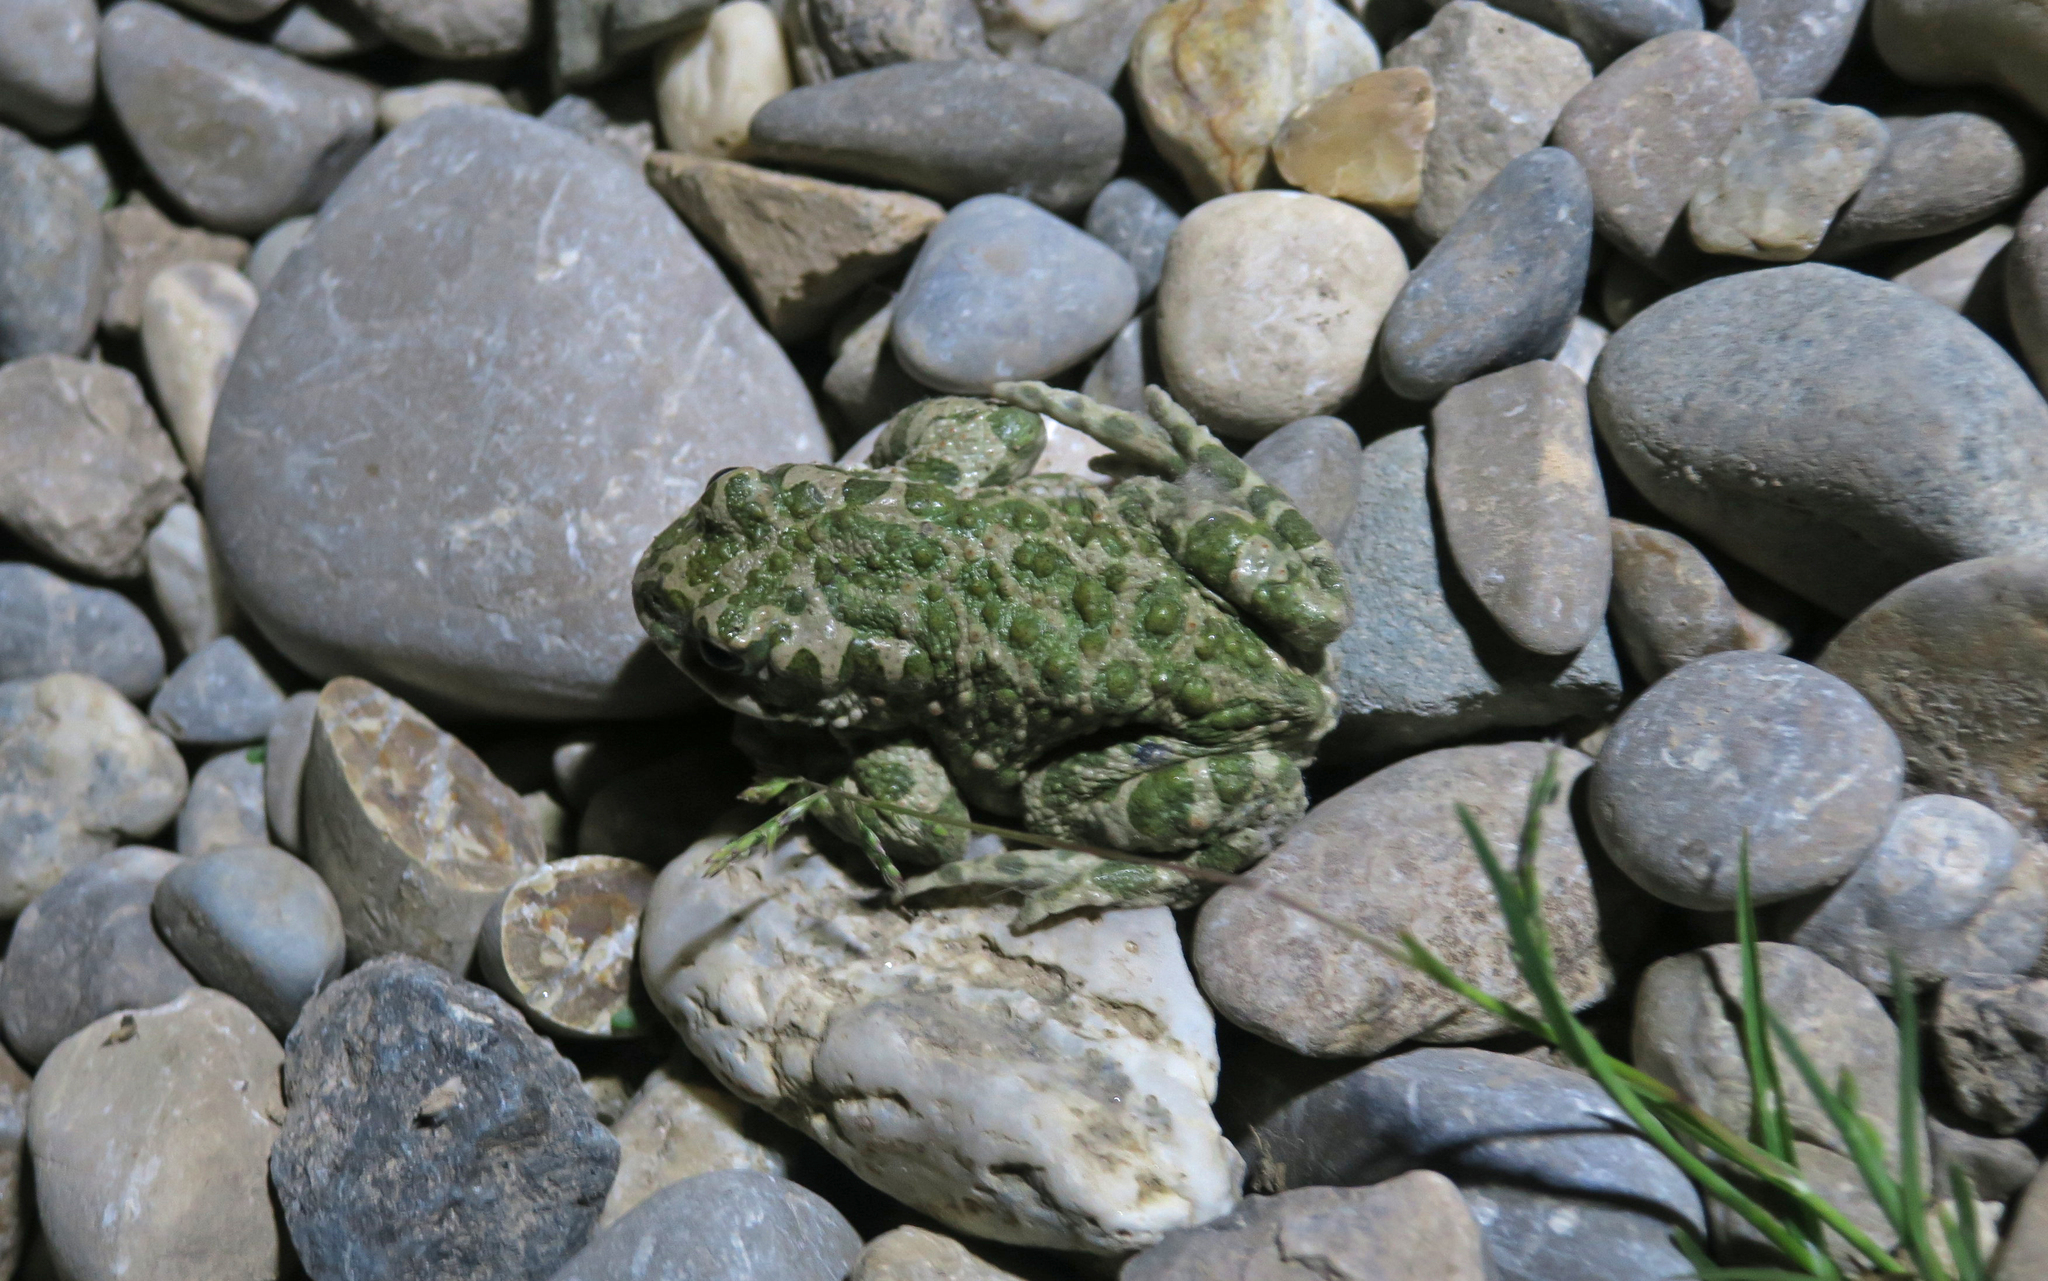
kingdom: Animalia
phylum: Chordata
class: Amphibia
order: Anura
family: Bufonidae
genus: Bufotes
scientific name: Bufotes viridis
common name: European green toad
